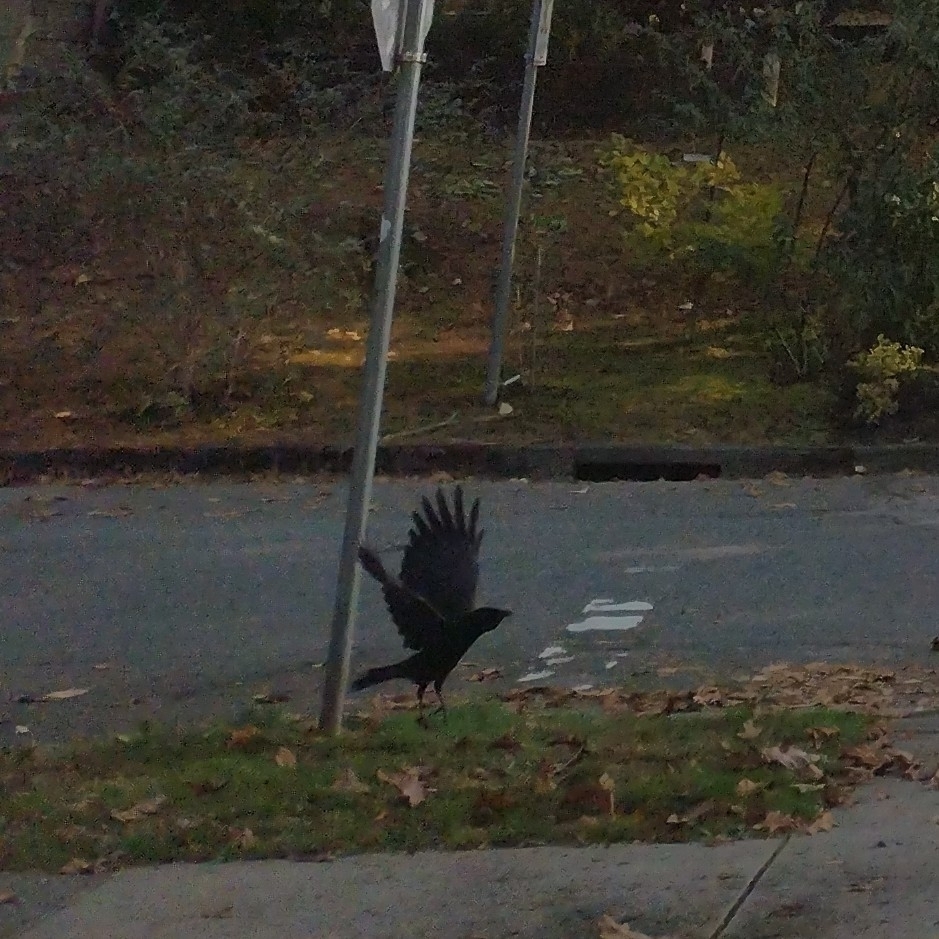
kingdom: Animalia
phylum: Chordata
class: Aves
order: Passeriformes
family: Corvidae
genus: Corvus
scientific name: Corvus brachyrhynchos
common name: American crow
